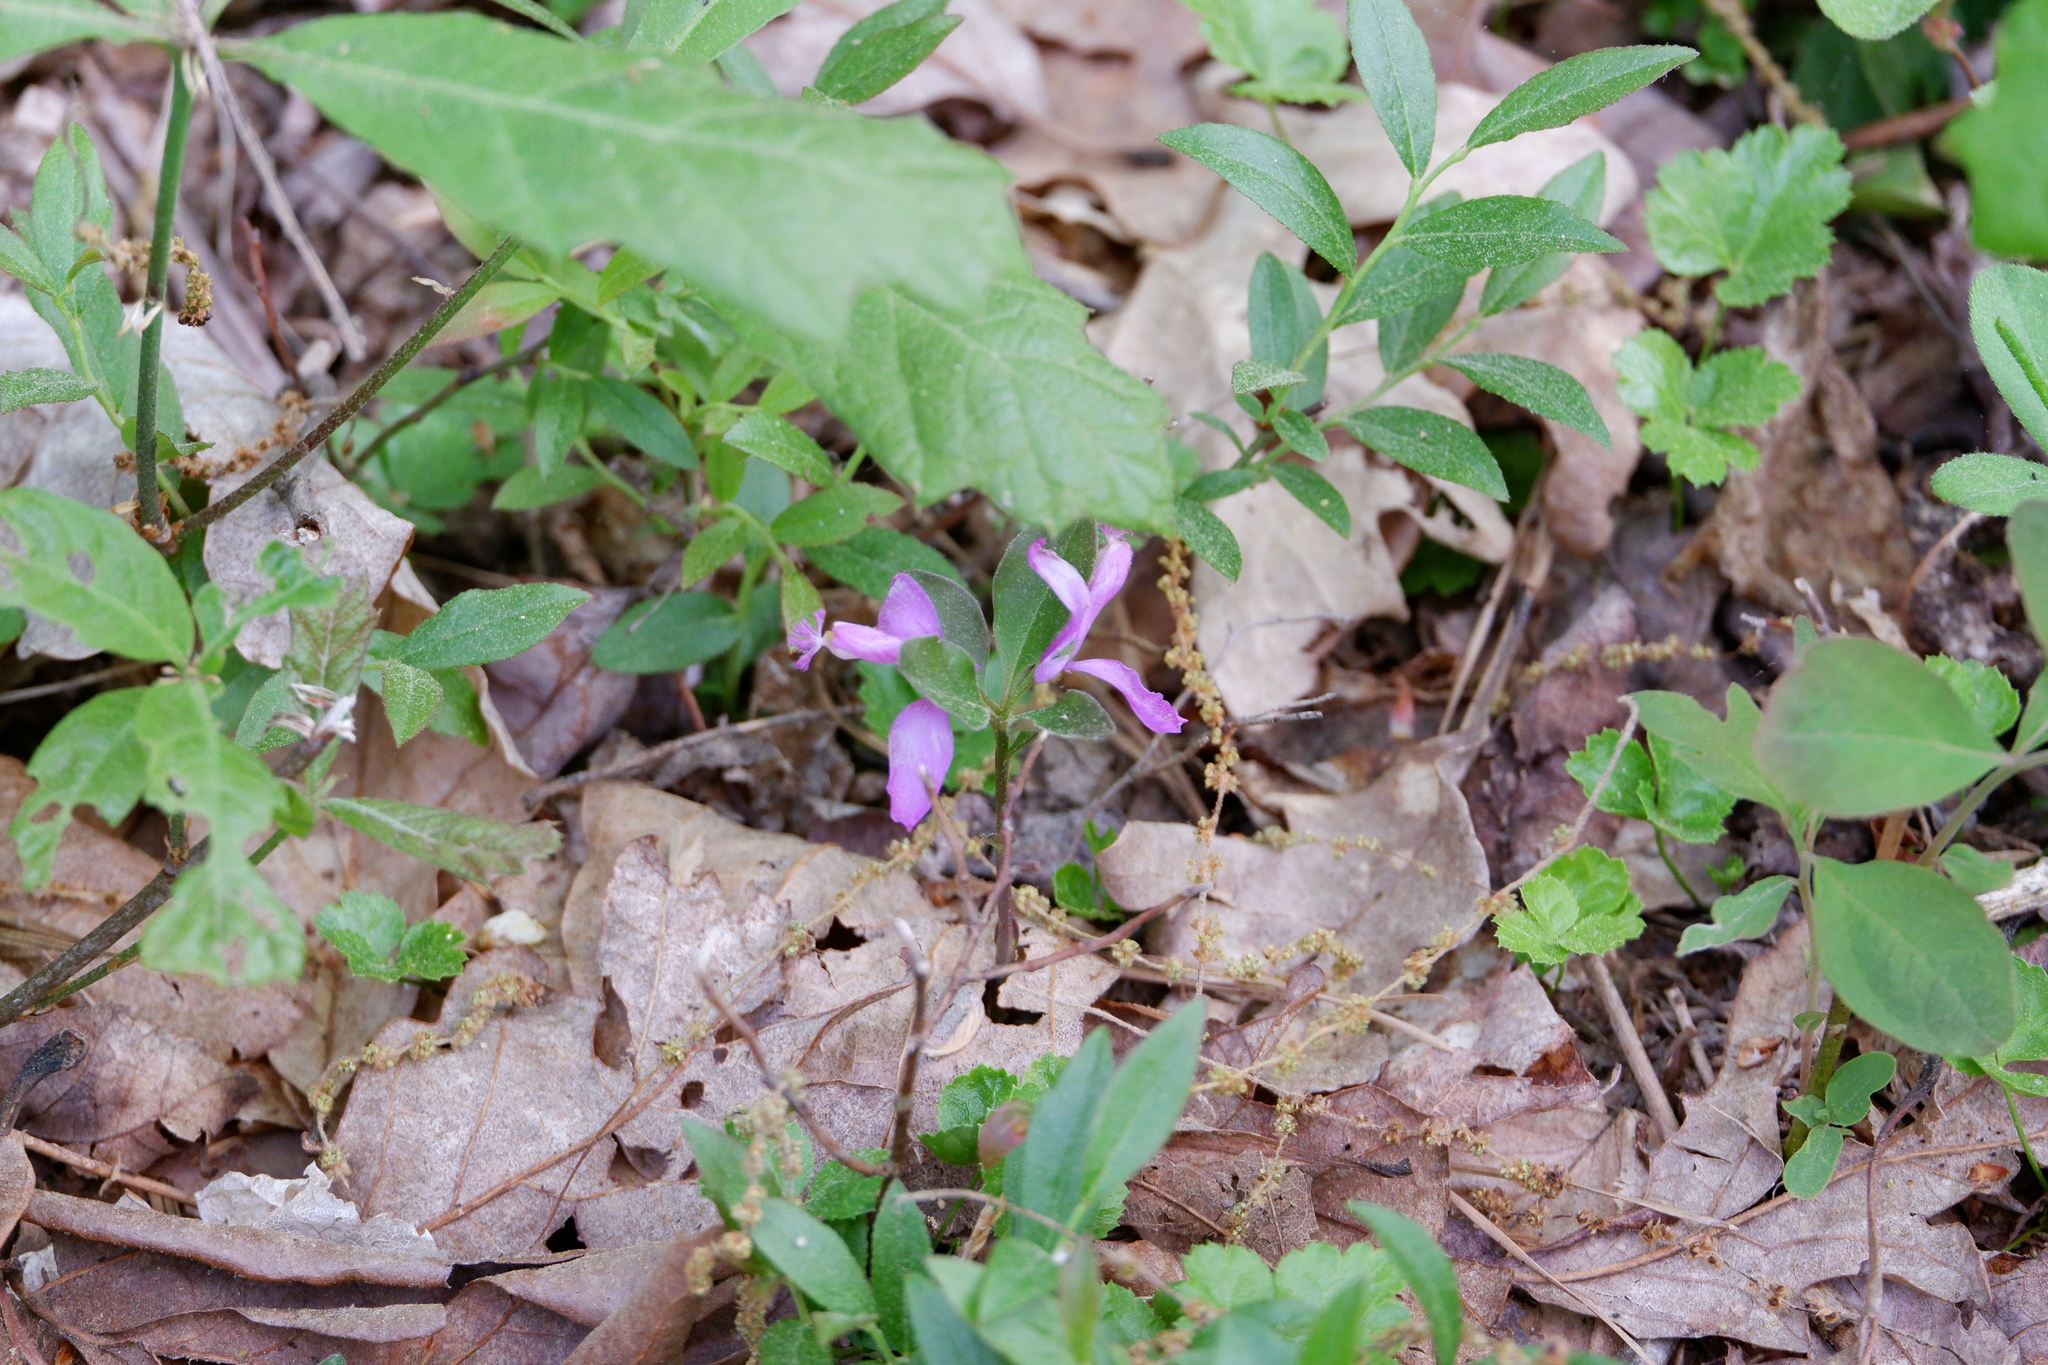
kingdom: Plantae
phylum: Tracheophyta
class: Magnoliopsida
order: Fabales
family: Polygalaceae
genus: Polygaloides
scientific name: Polygaloides paucifolia
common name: Bird-on-the-wing
